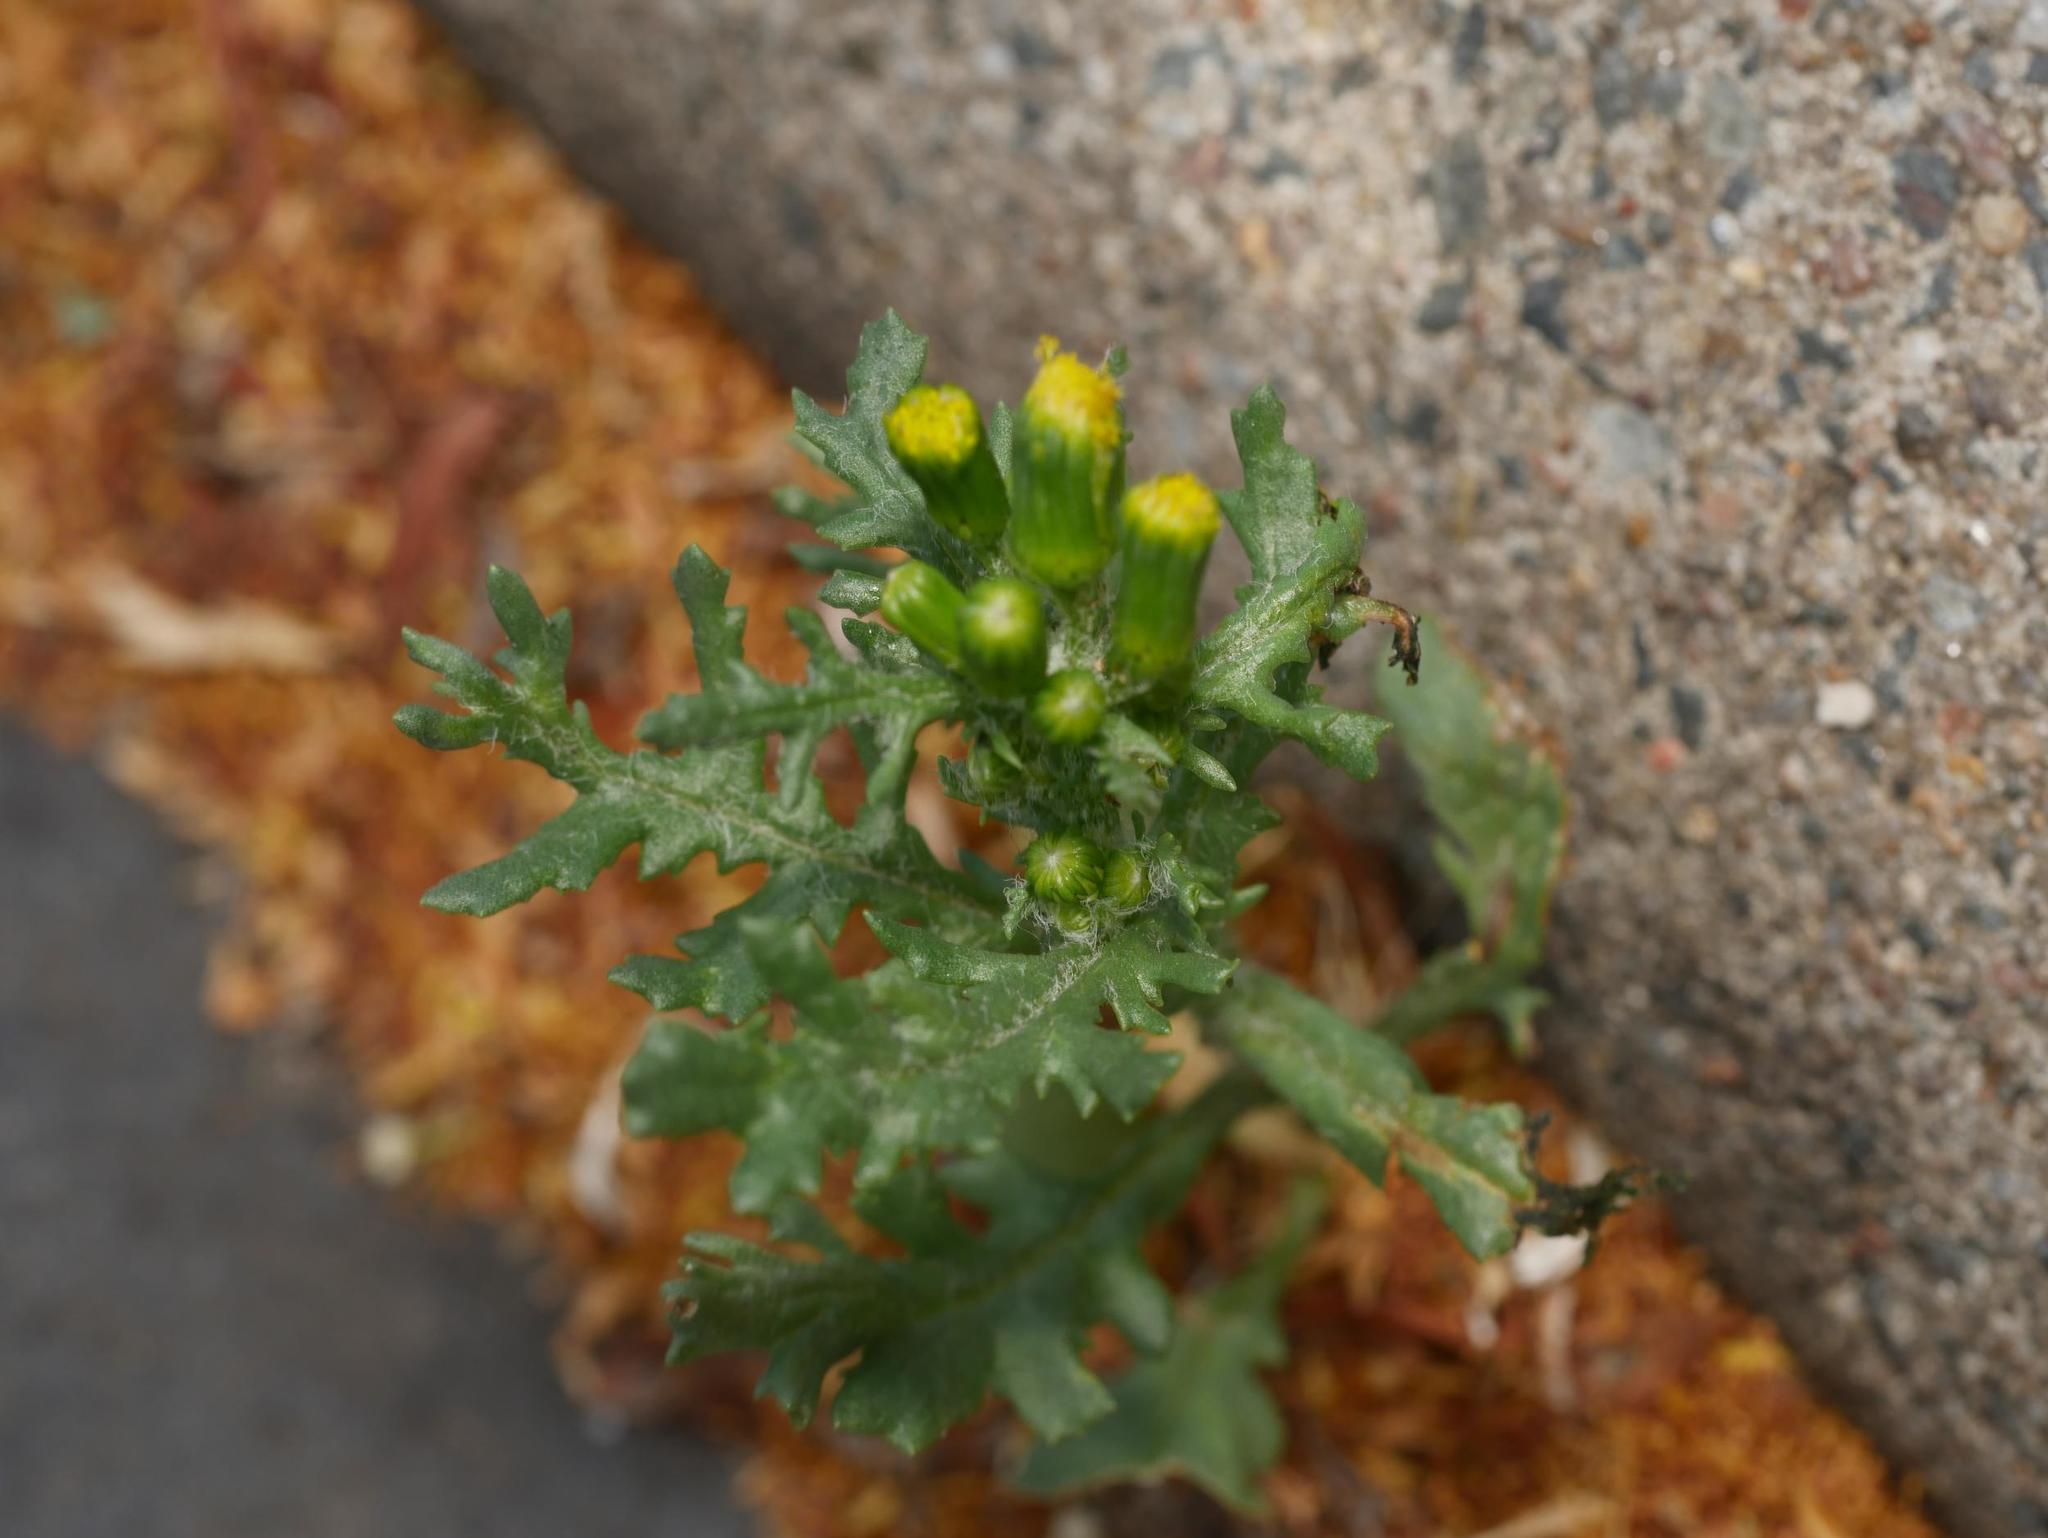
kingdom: Plantae
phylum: Tracheophyta
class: Magnoliopsida
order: Asterales
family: Asteraceae
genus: Senecio
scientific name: Senecio vulgaris
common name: Old-man-in-the-spring
